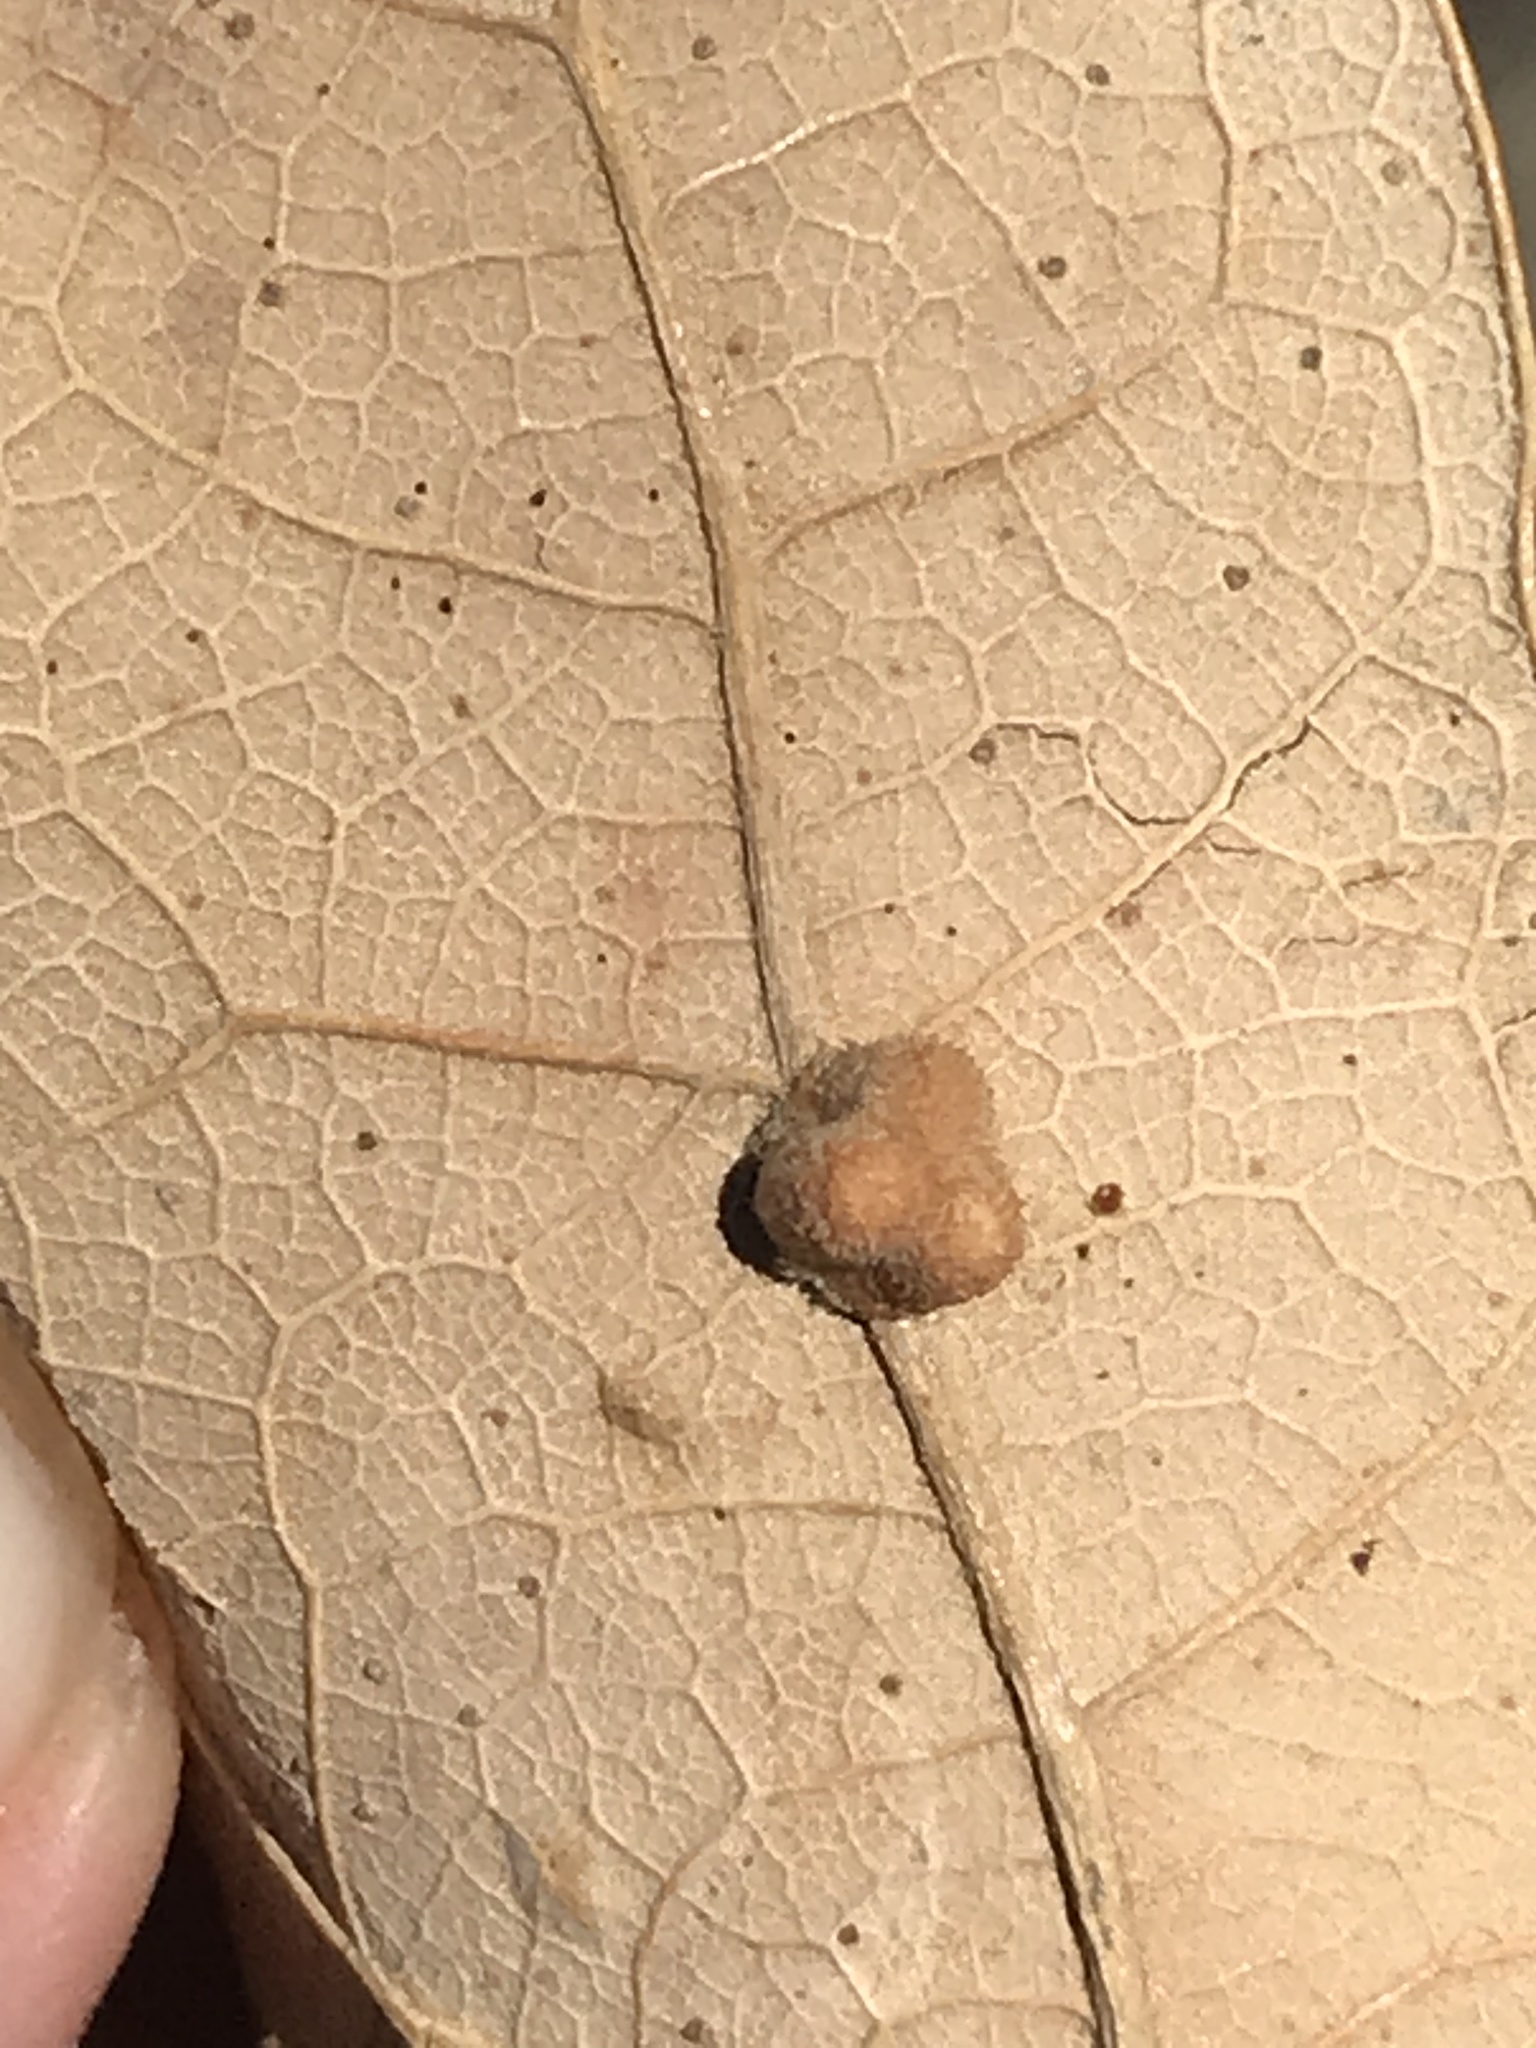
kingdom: Animalia
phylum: Arthropoda
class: Insecta
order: Hymenoptera
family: Cynipidae
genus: Andricus
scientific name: Andricus Druon pattoni
